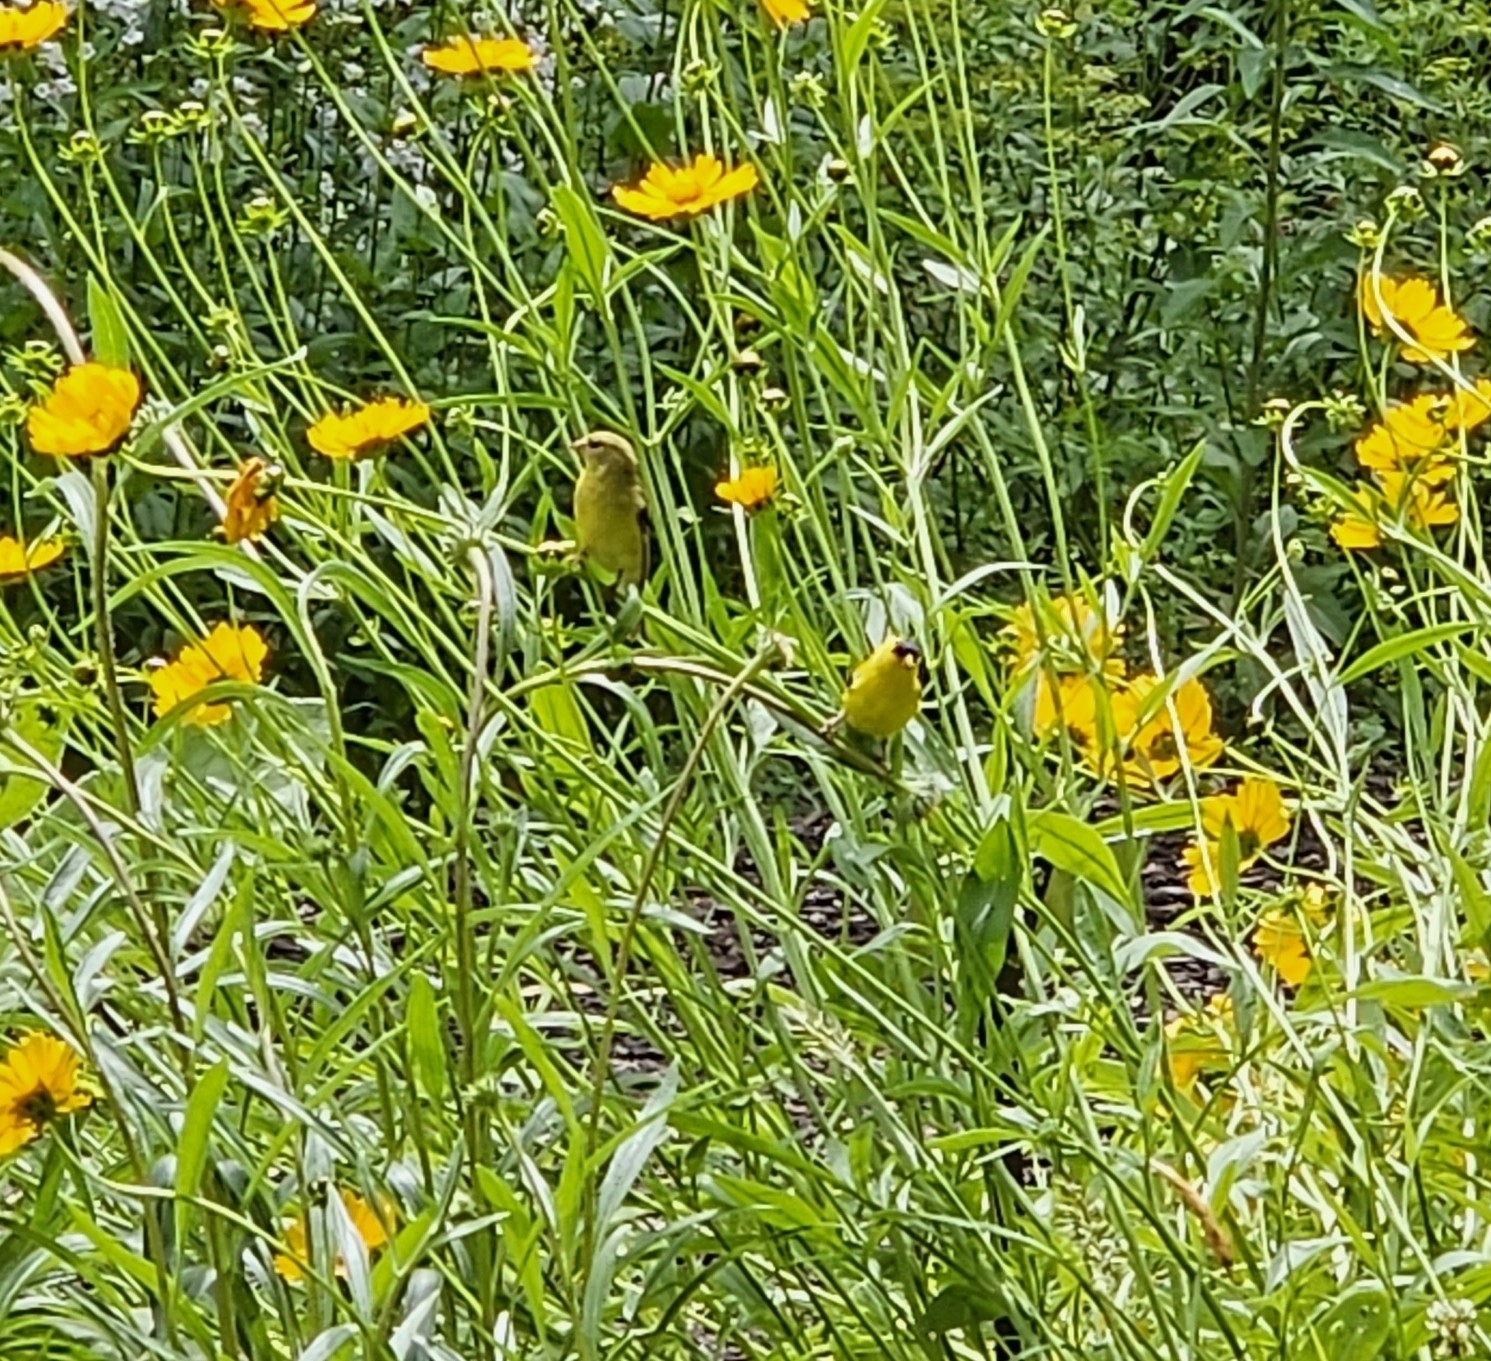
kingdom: Animalia
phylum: Chordata
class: Aves
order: Passeriformes
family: Fringillidae
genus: Spinus
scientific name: Spinus tristis
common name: American goldfinch
